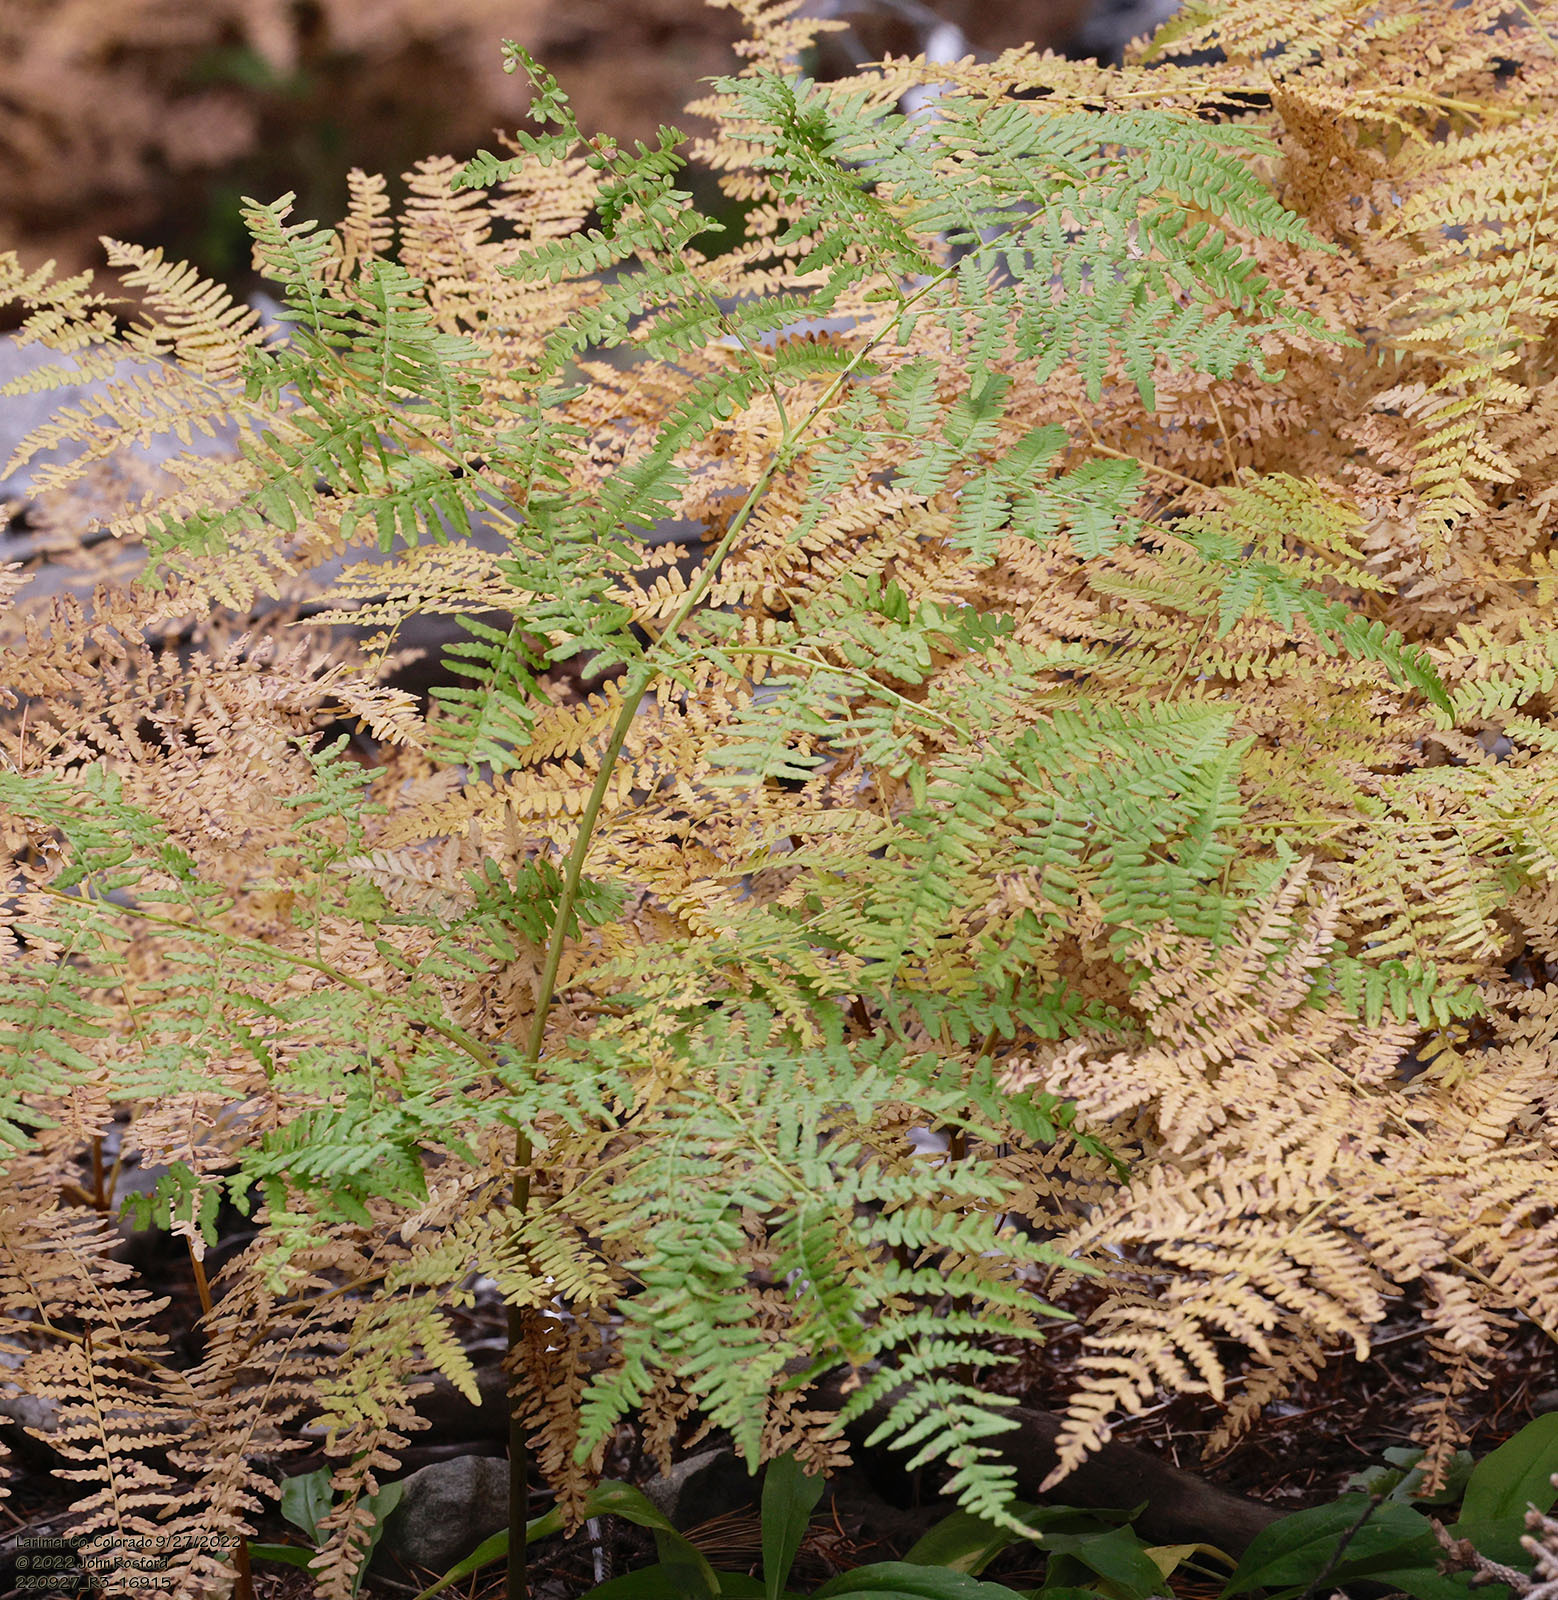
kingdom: Plantae
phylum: Tracheophyta
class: Polypodiopsida
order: Polypodiales
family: Dennstaedtiaceae
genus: Pteridium
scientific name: Pteridium aquilinum
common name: Bracken
